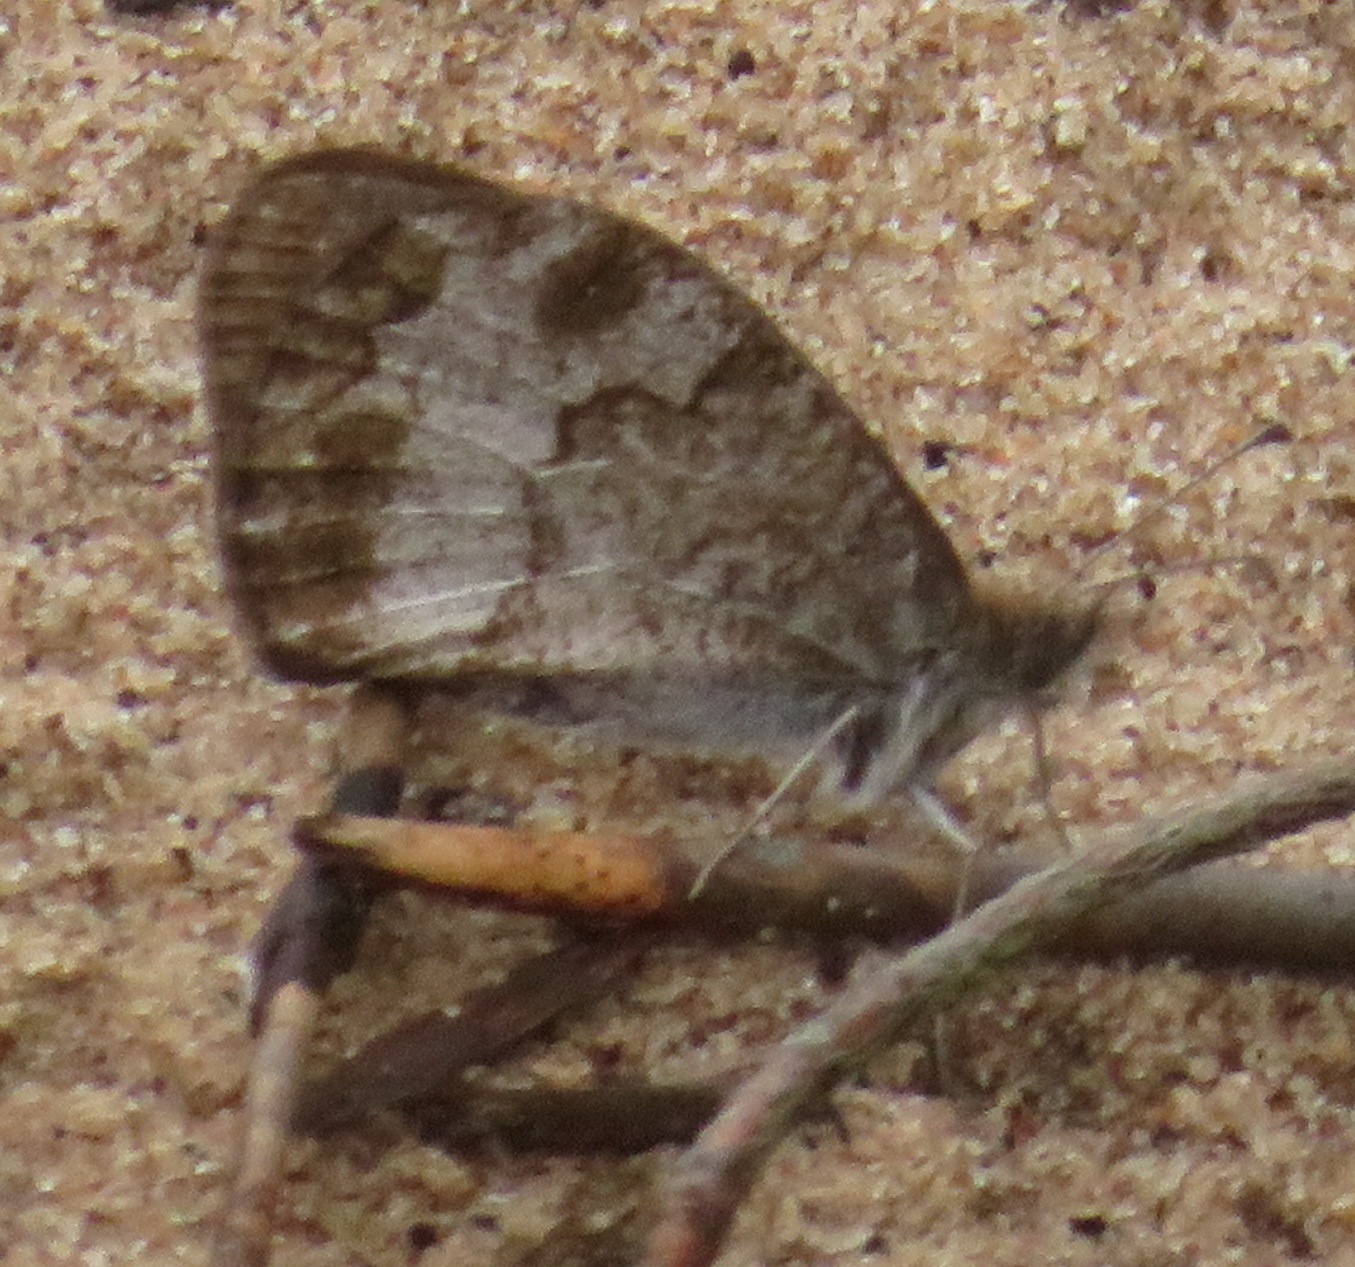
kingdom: Animalia
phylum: Arthropoda
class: Insecta
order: Lepidoptera
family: Nymphalidae
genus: Pseudonympha
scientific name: Pseudonympha magus
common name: Silver-bottom brown
